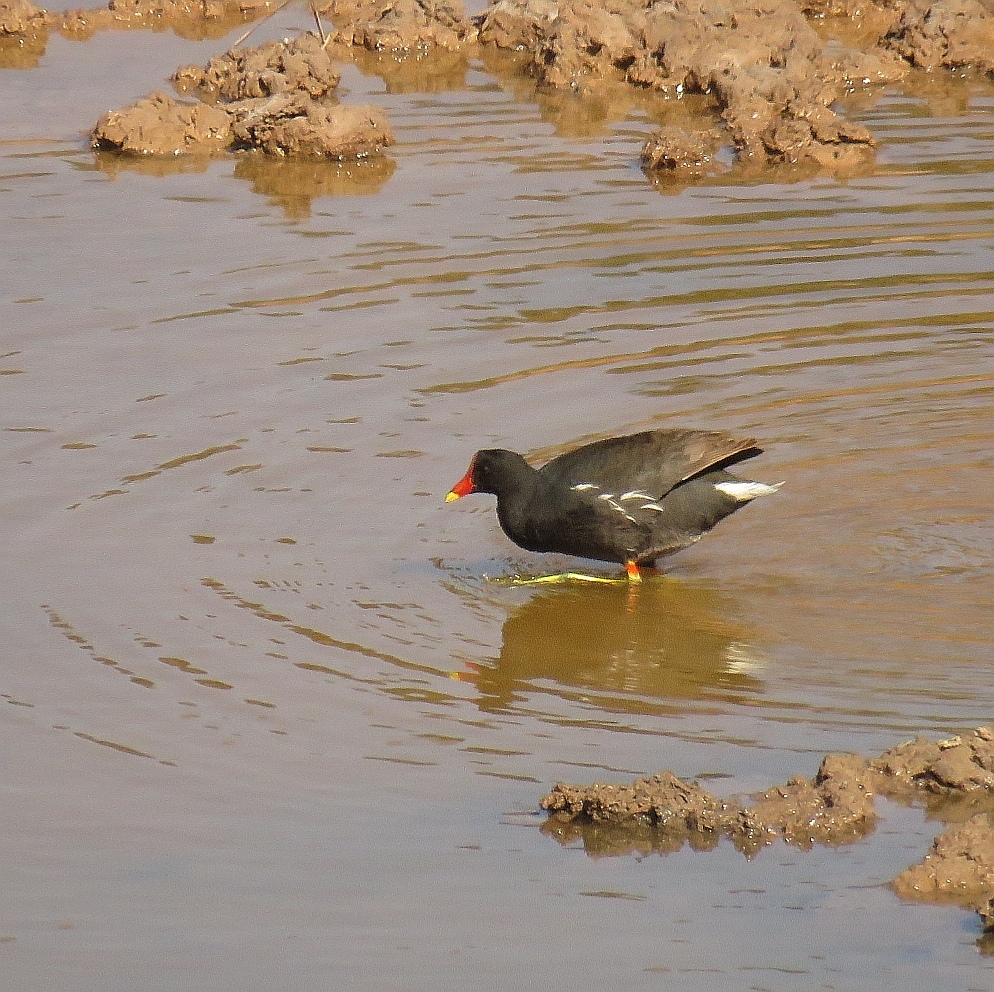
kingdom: Animalia
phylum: Chordata
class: Aves
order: Gruiformes
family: Rallidae
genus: Gallinula
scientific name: Gallinula chloropus
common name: Common moorhen
